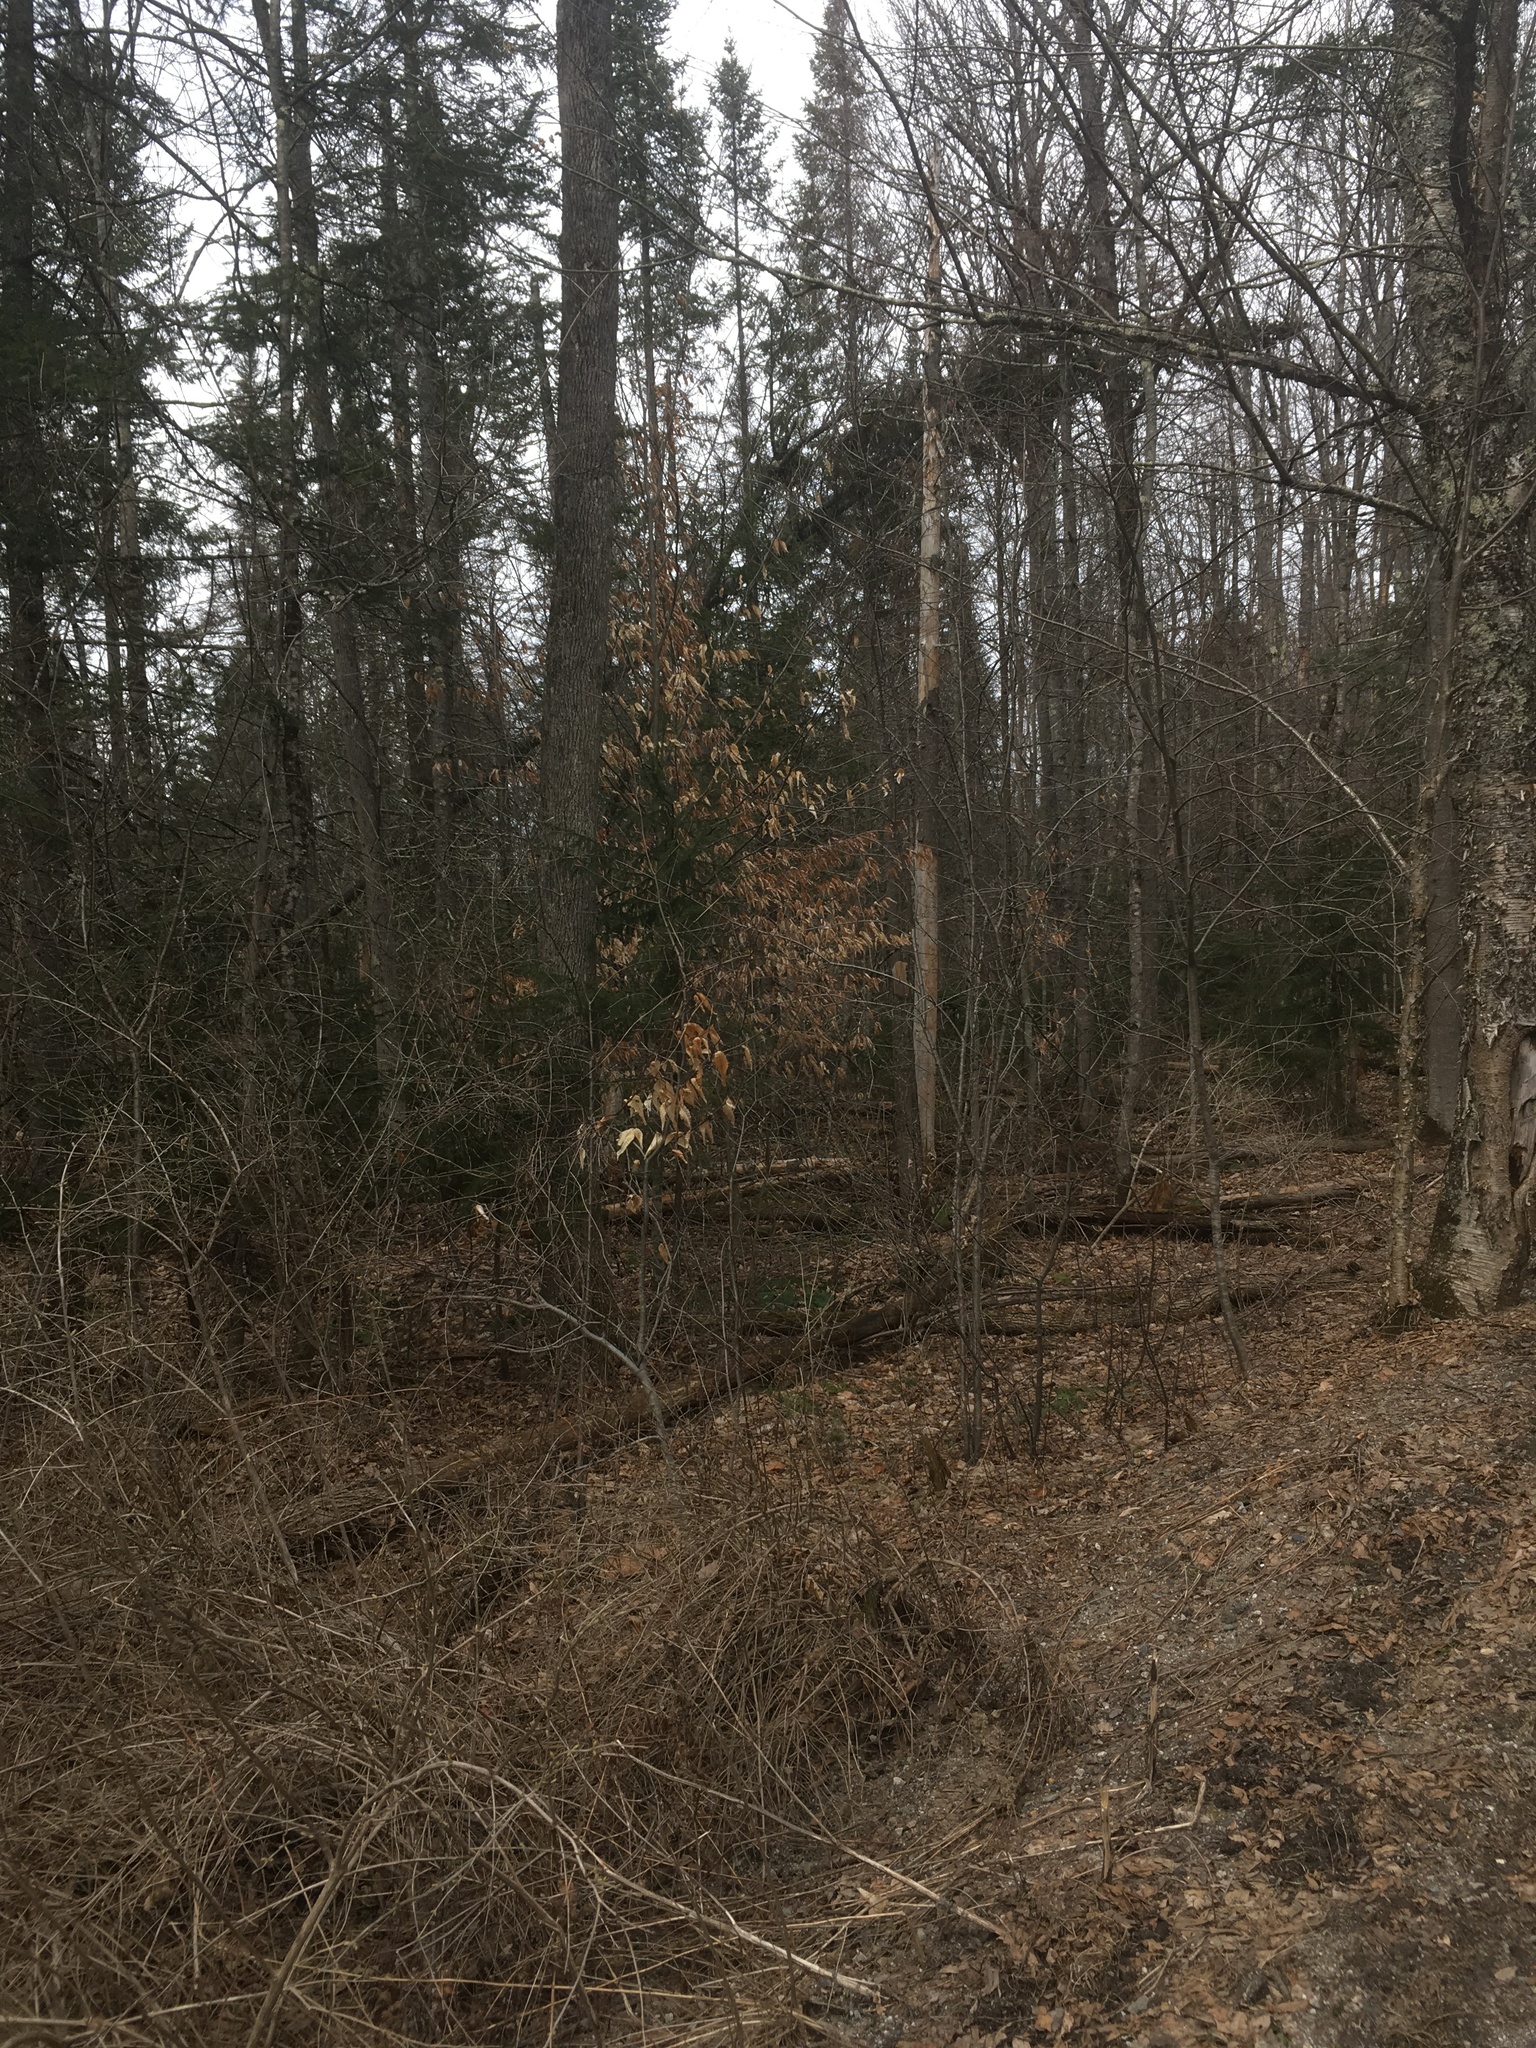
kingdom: Plantae
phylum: Tracheophyta
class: Magnoliopsida
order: Fagales
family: Fagaceae
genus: Fagus
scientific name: Fagus grandifolia
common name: American beech
